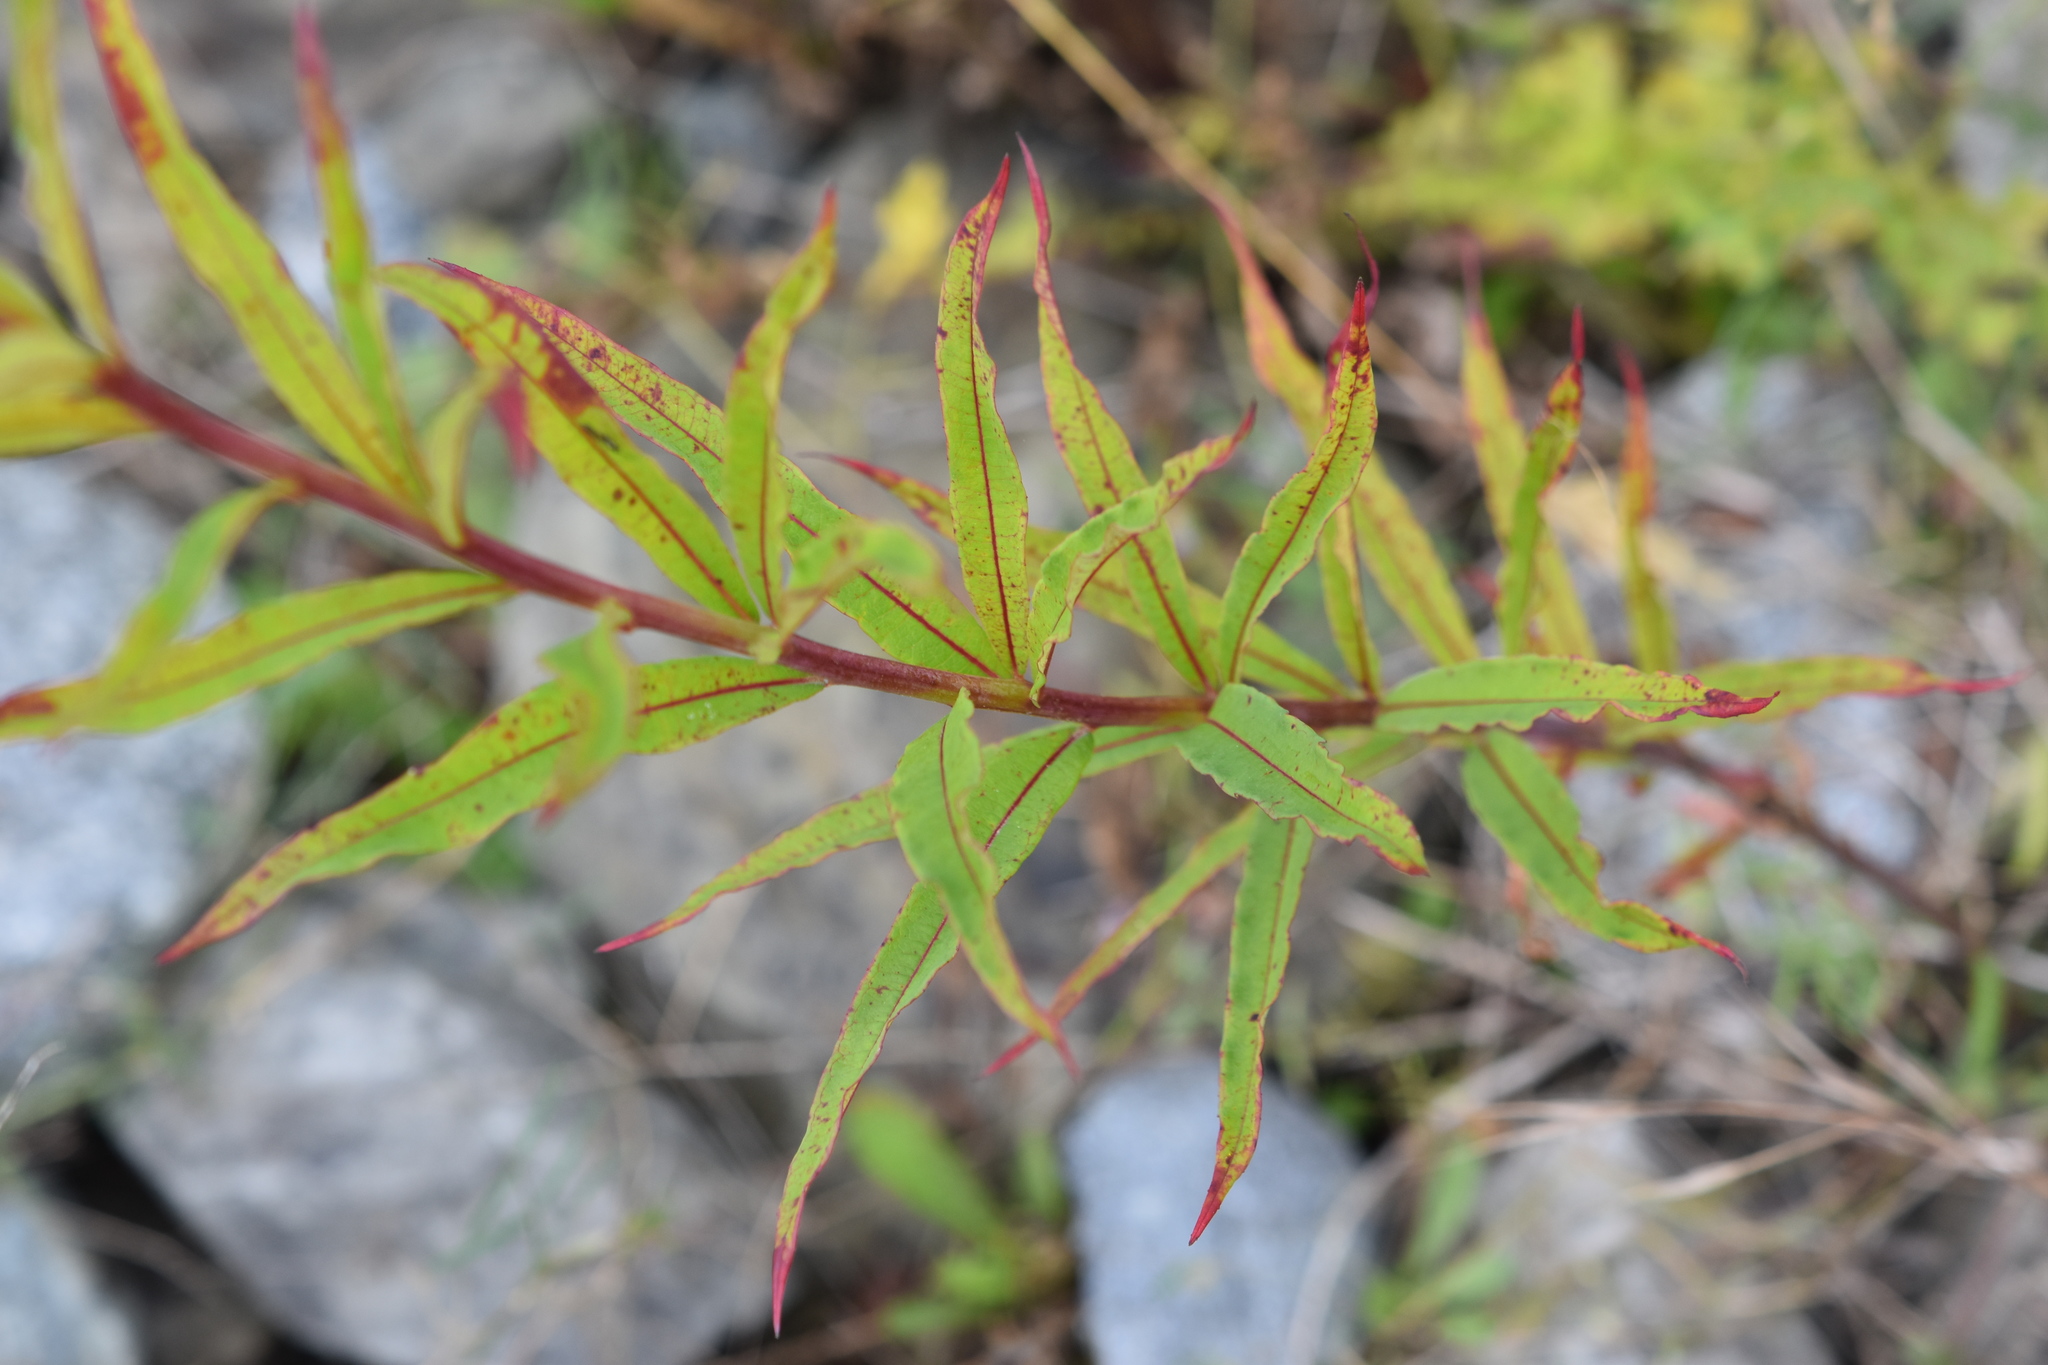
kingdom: Plantae
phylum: Tracheophyta
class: Magnoliopsida
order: Myrtales
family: Onagraceae
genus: Chamaenerion
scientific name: Chamaenerion angustifolium
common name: Fireweed
